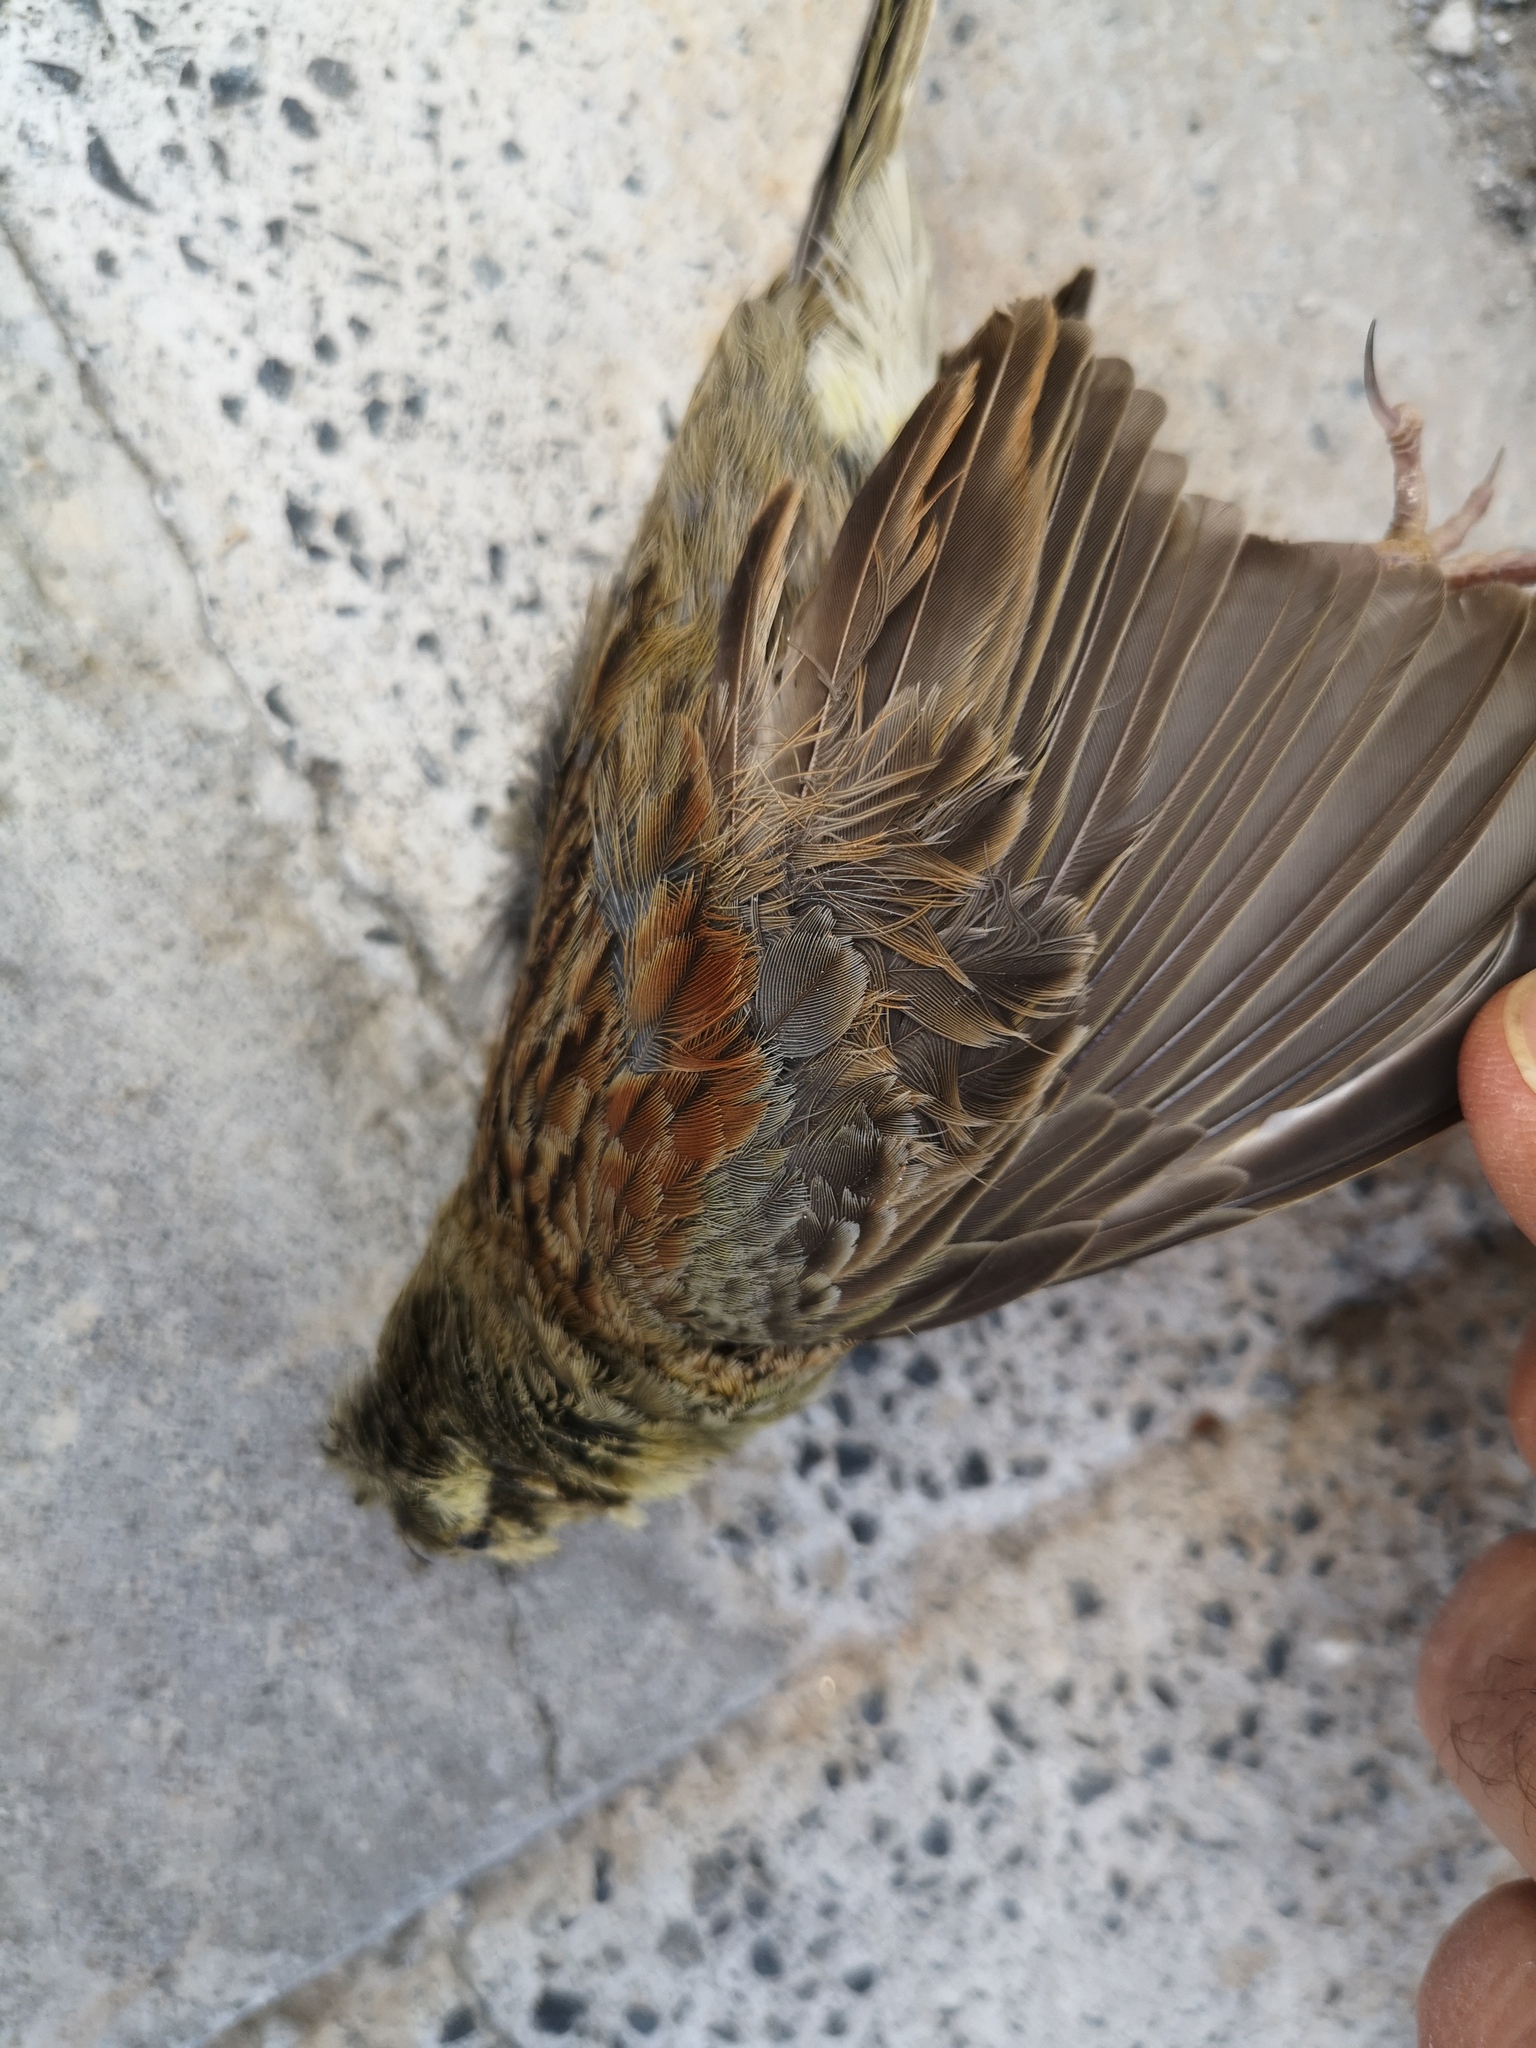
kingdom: Animalia
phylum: Chordata
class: Aves
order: Passeriformes
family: Emberizidae
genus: Emberiza
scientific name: Emberiza cirlus
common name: Cirl bunting
